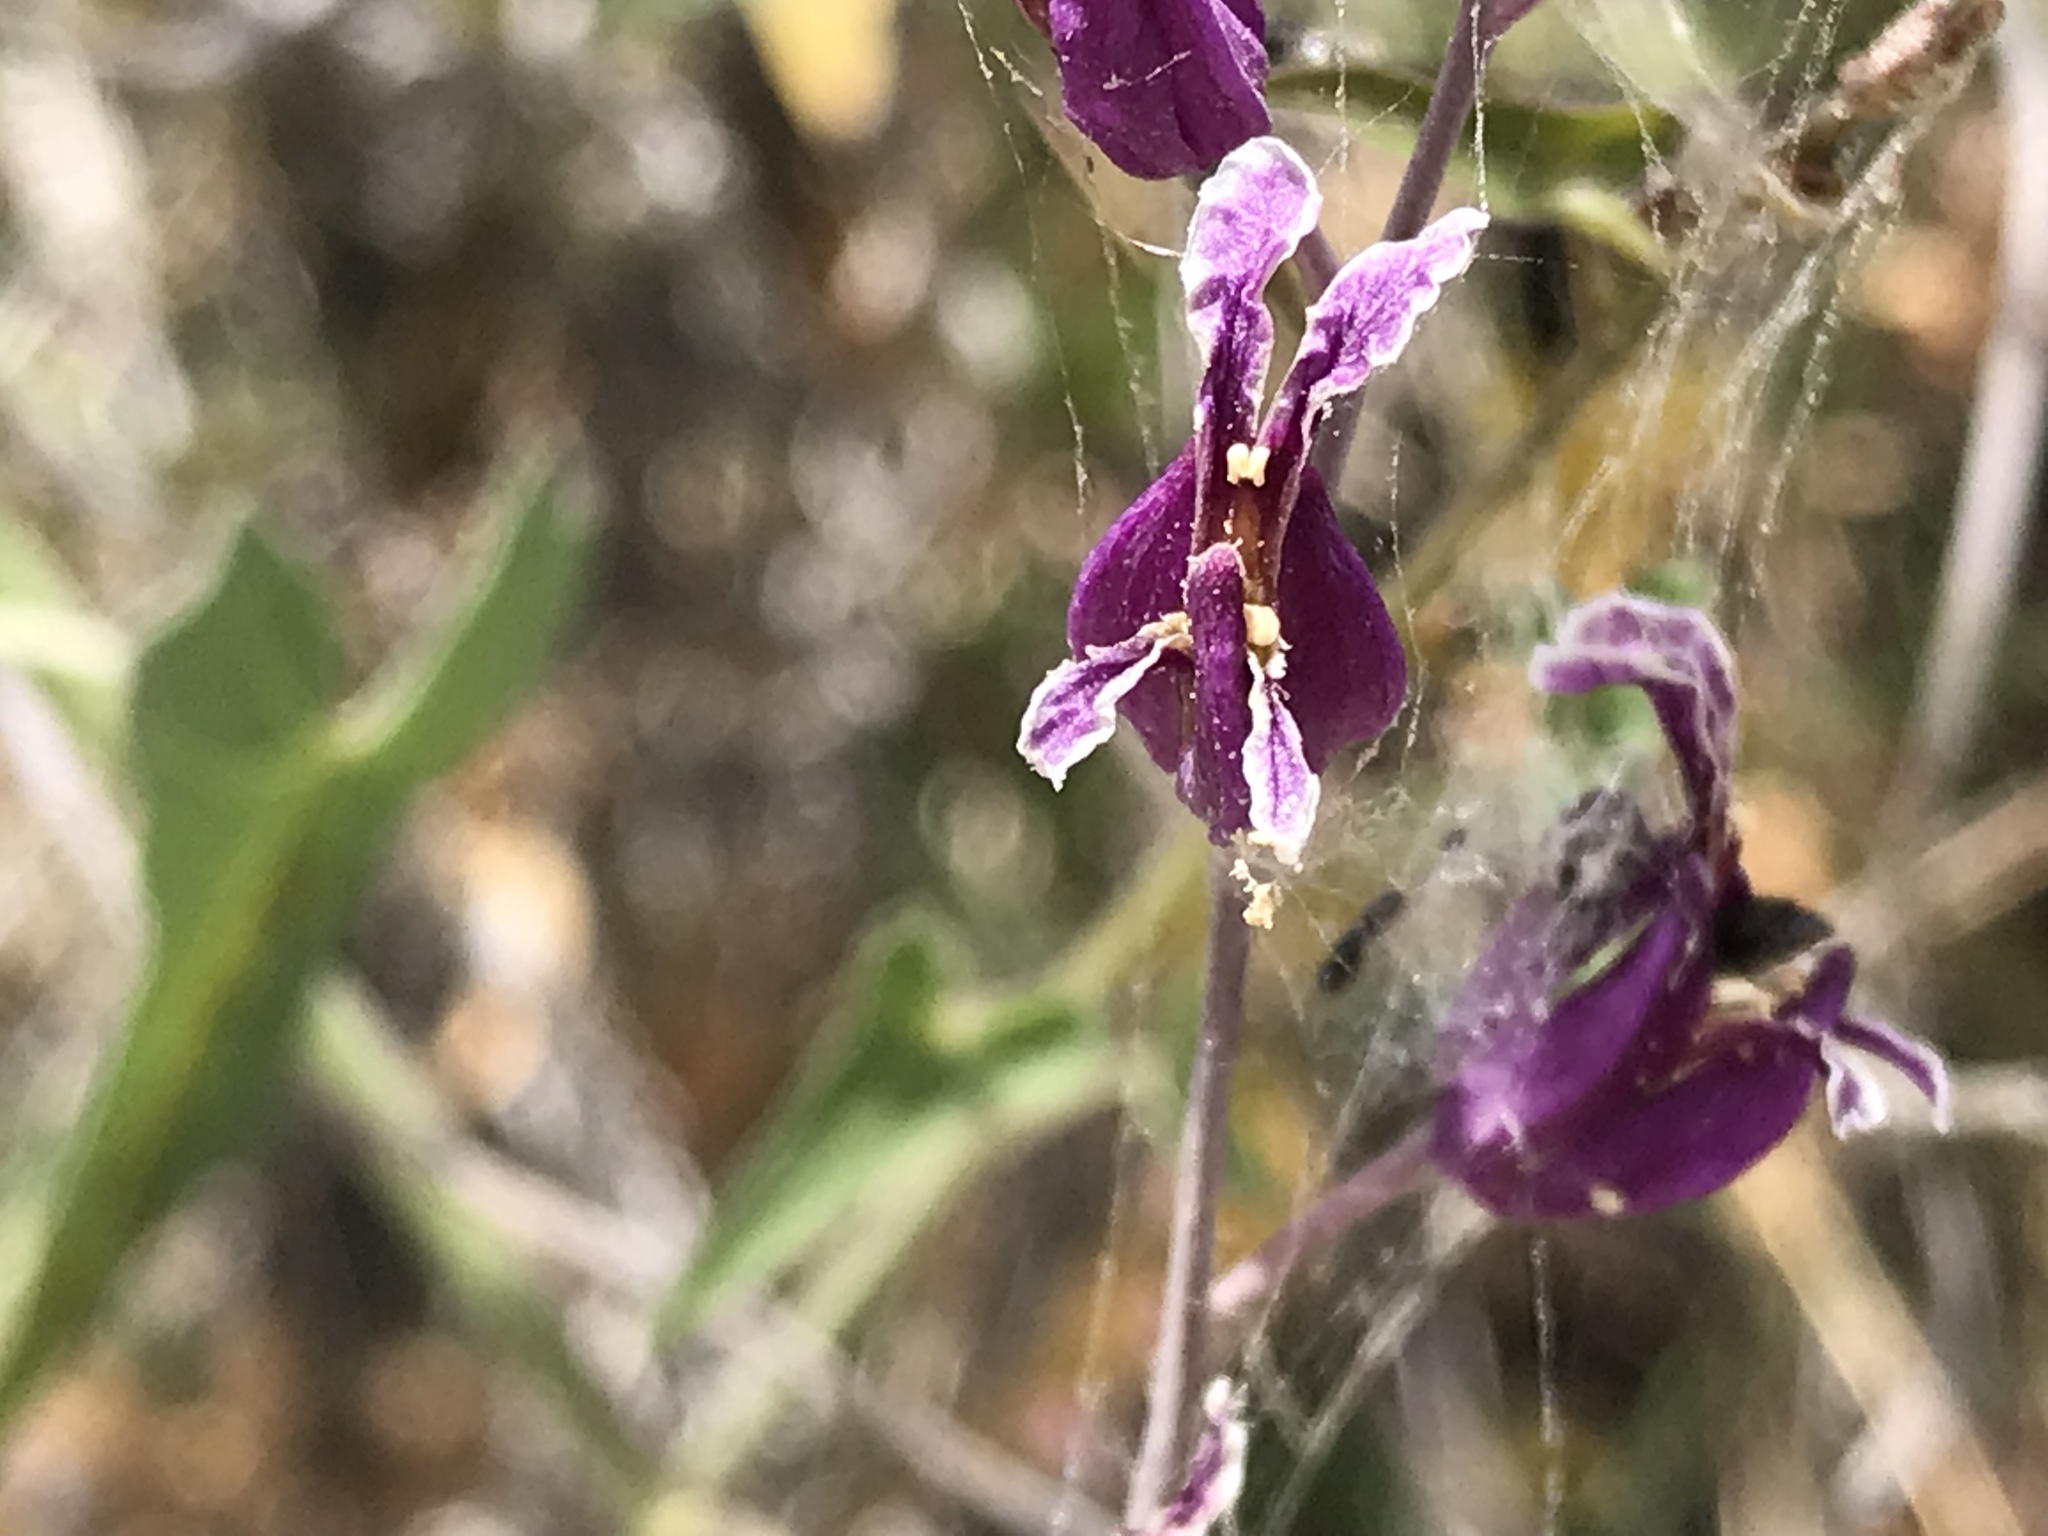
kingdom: Plantae
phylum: Tracheophyta
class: Magnoliopsida
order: Brassicales
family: Brassicaceae
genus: Streptanthus
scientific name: Streptanthus glandulosus
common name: Jewel-flower
